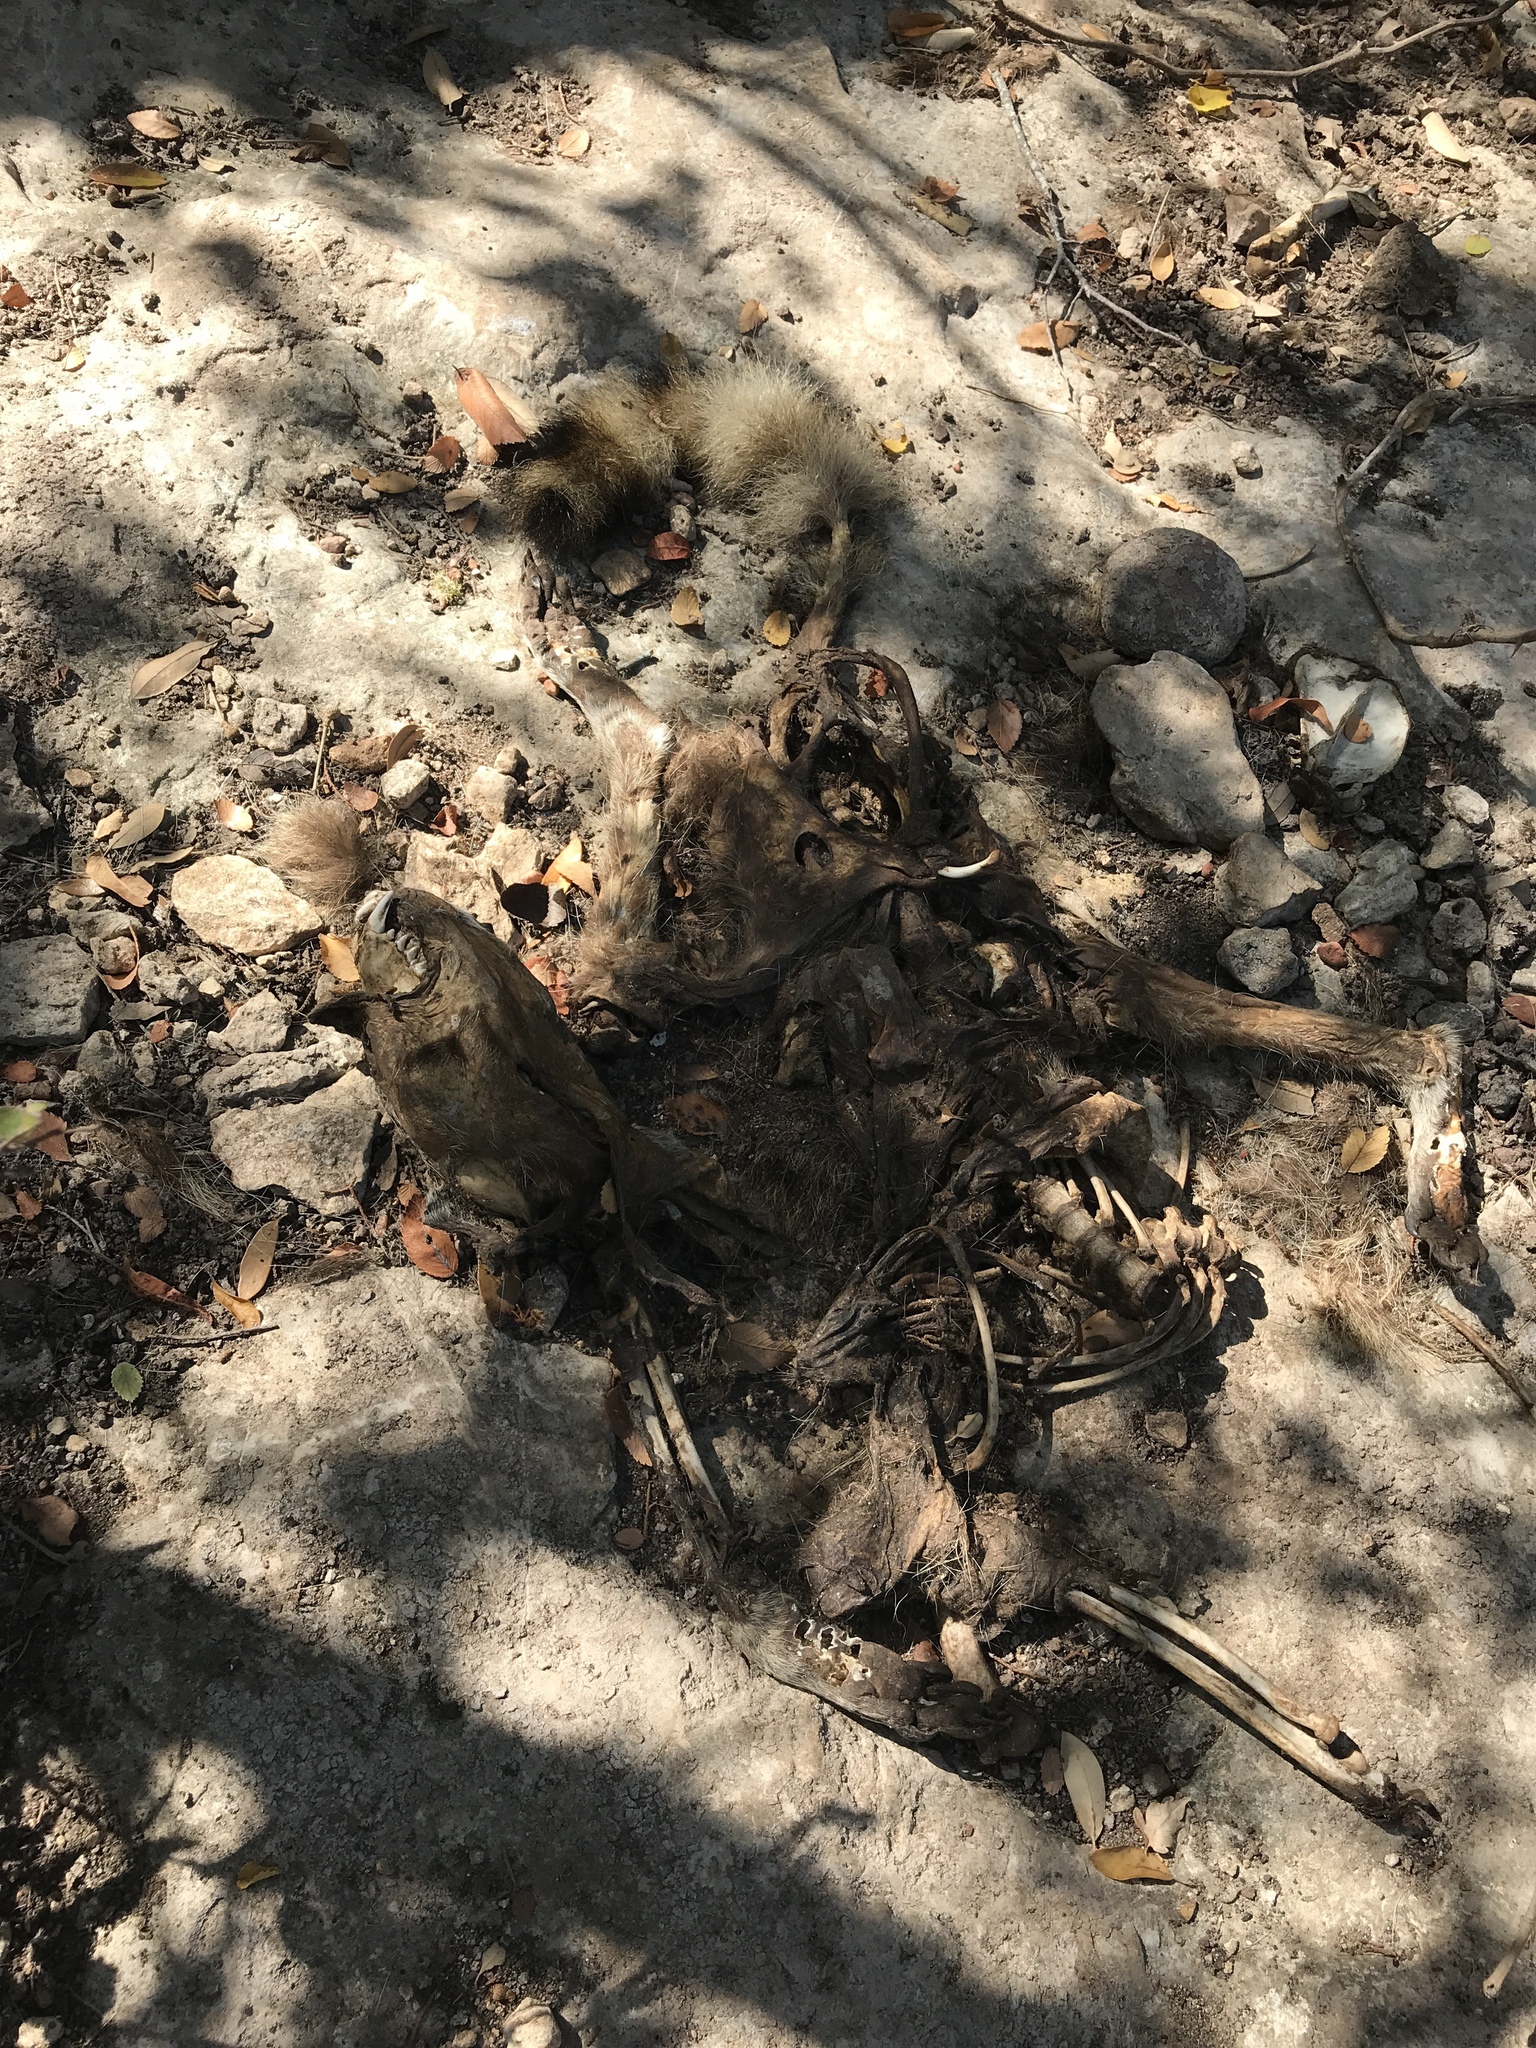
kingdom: Animalia
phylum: Chordata
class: Mammalia
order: Carnivora
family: Procyonidae
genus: Procyon
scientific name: Procyon lotor
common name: Raccoon
